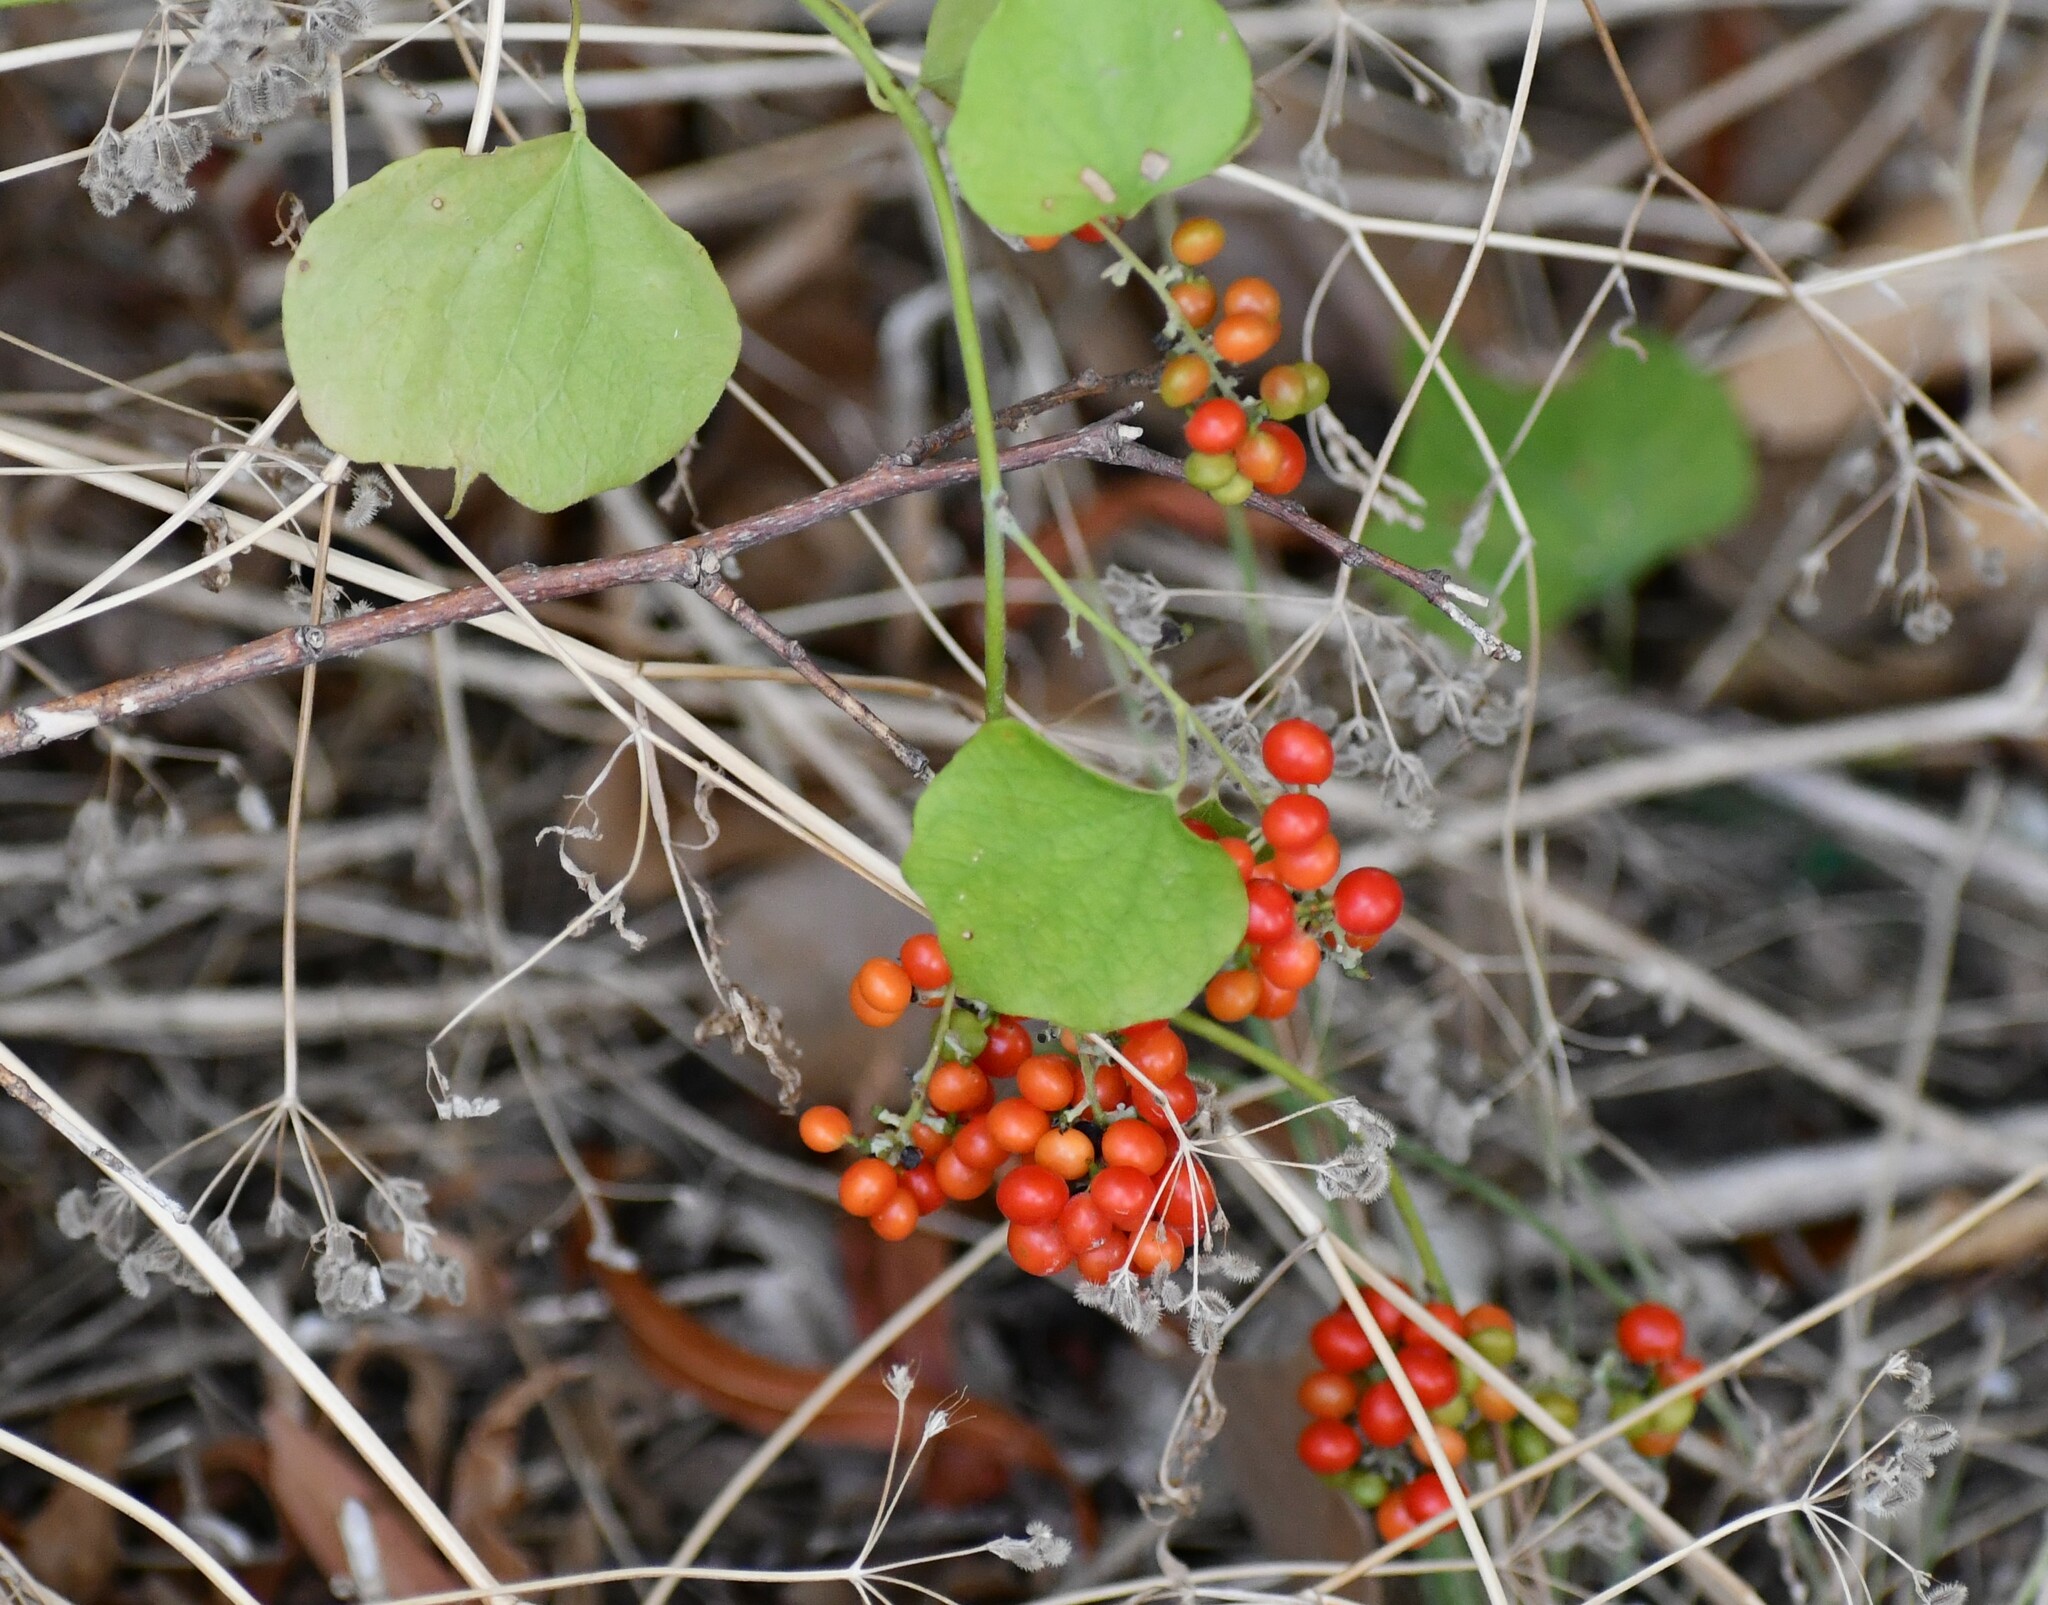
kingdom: Plantae
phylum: Tracheophyta
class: Magnoliopsida
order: Ranunculales
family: Menispermaceae
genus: Cocculus
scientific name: Cocculus carolinus
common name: Carolina moonseed
